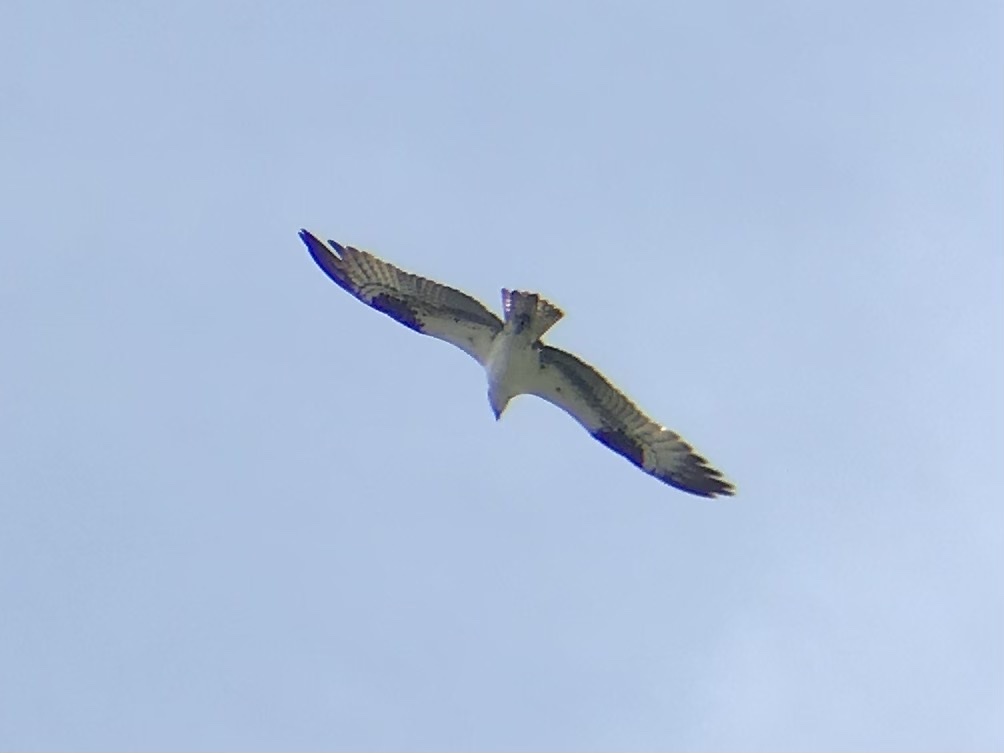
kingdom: Animalia
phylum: Chordata
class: Aves
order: Accipitriformes
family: Pandionidae
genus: Pandion
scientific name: Pandion haliaetus
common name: Osprey
